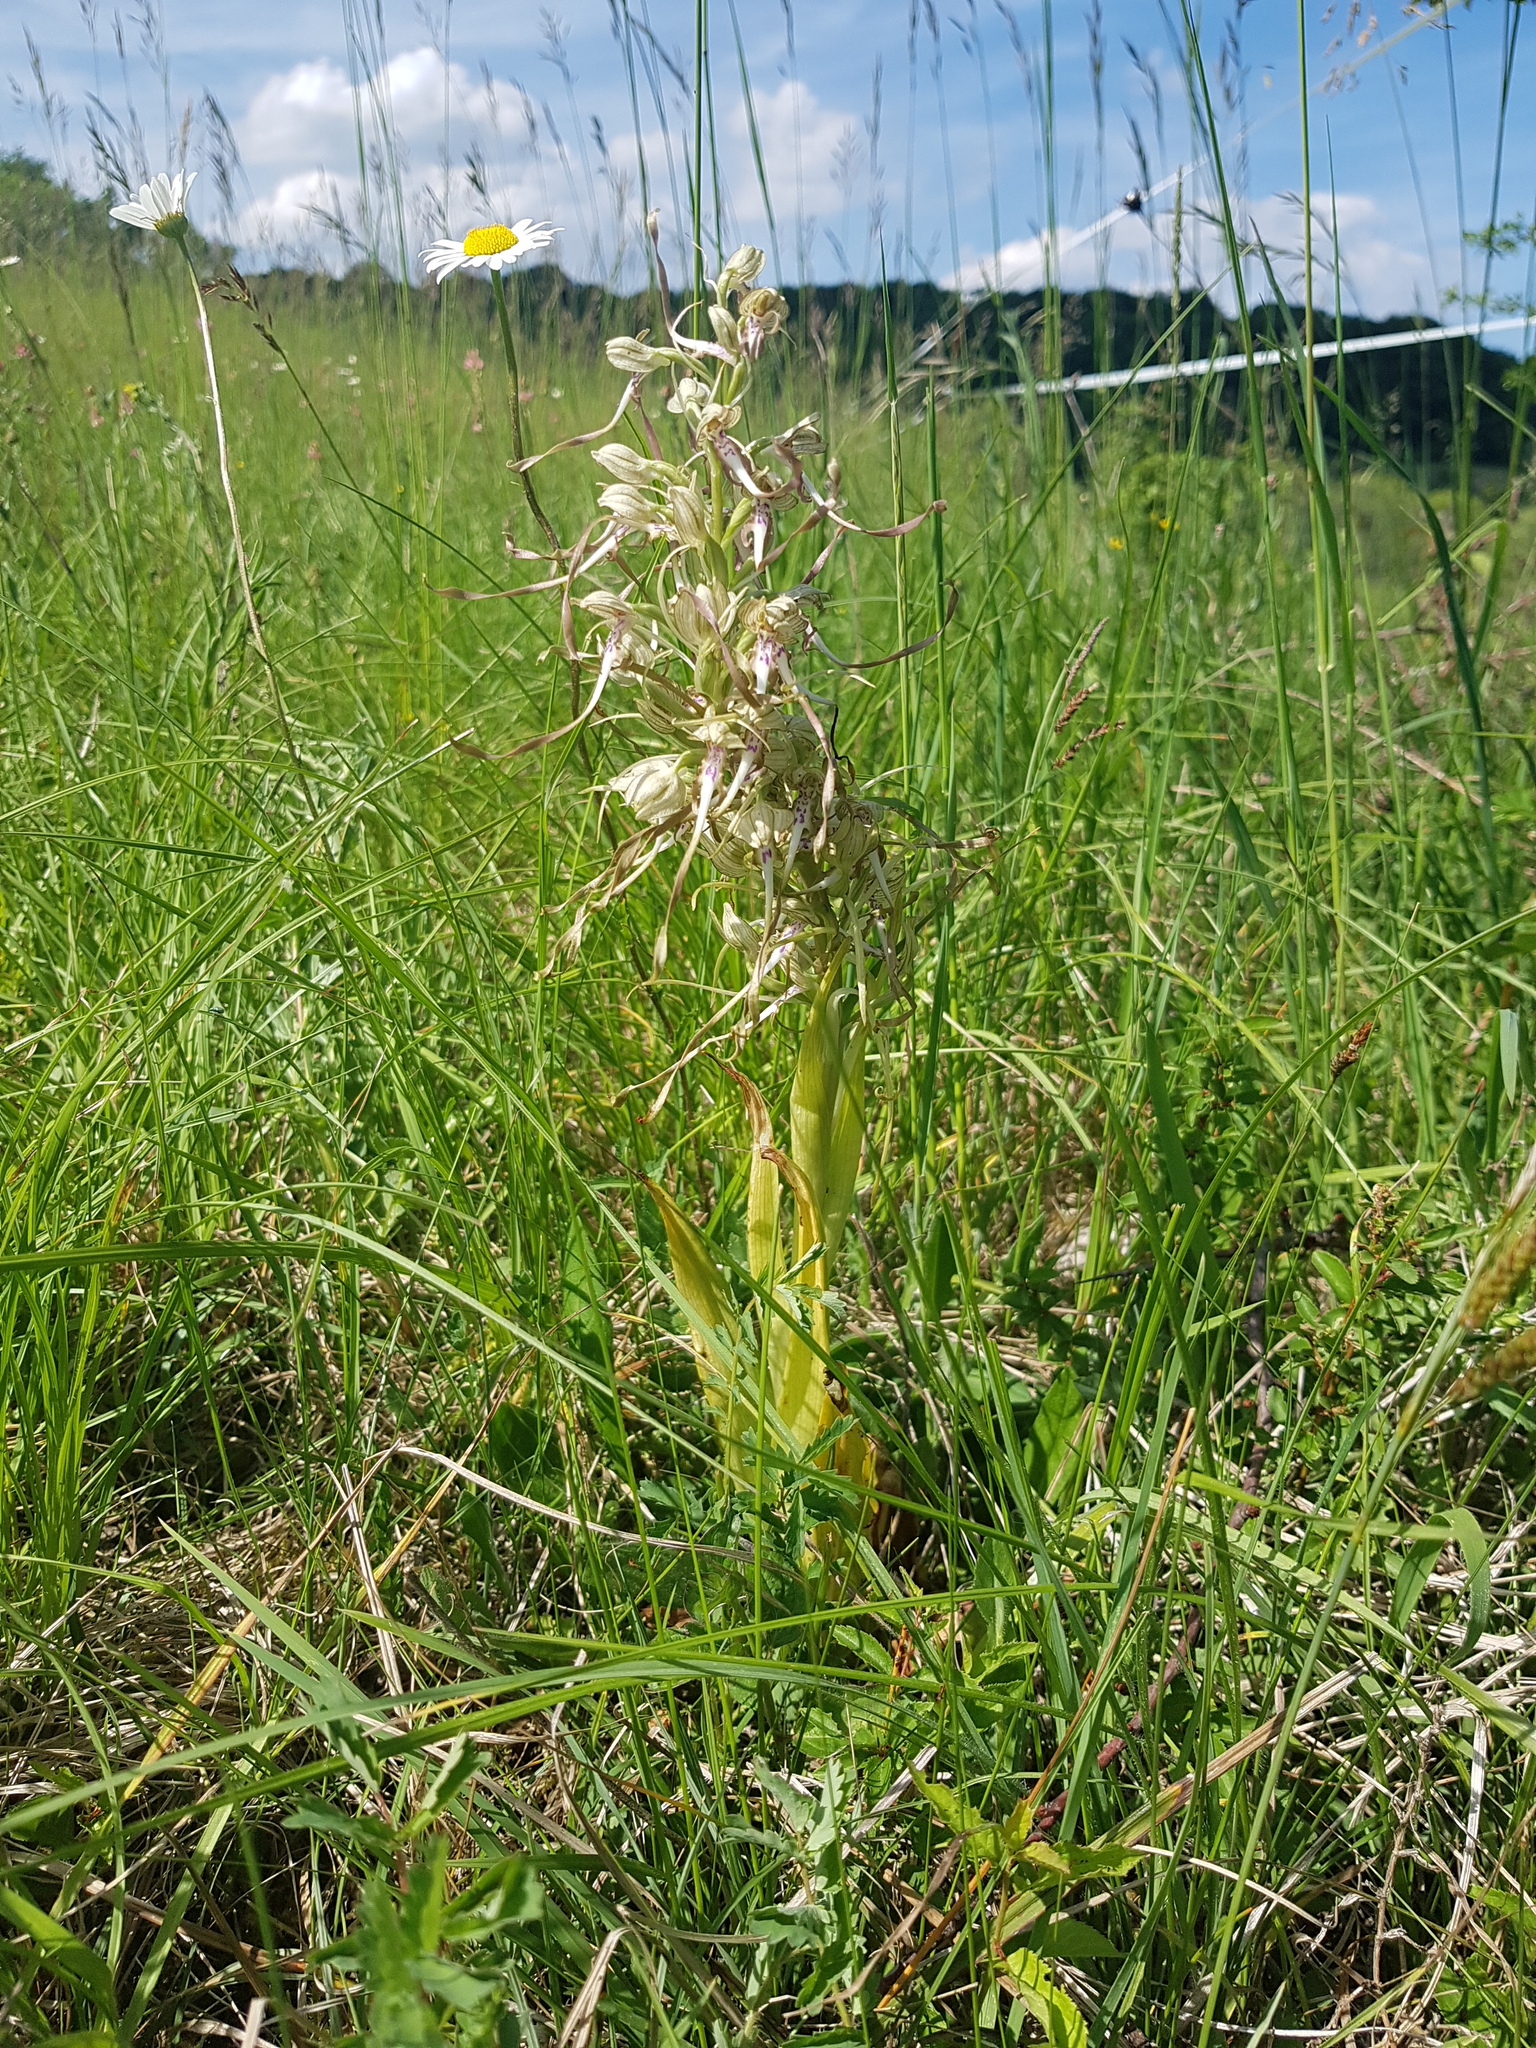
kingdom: Plantae
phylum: Tracheophyta
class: Liliopsida
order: Asparagales
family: Orchidaceae
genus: Himantoglossum
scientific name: Himantoglossum hircinum
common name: Lizard orchid
